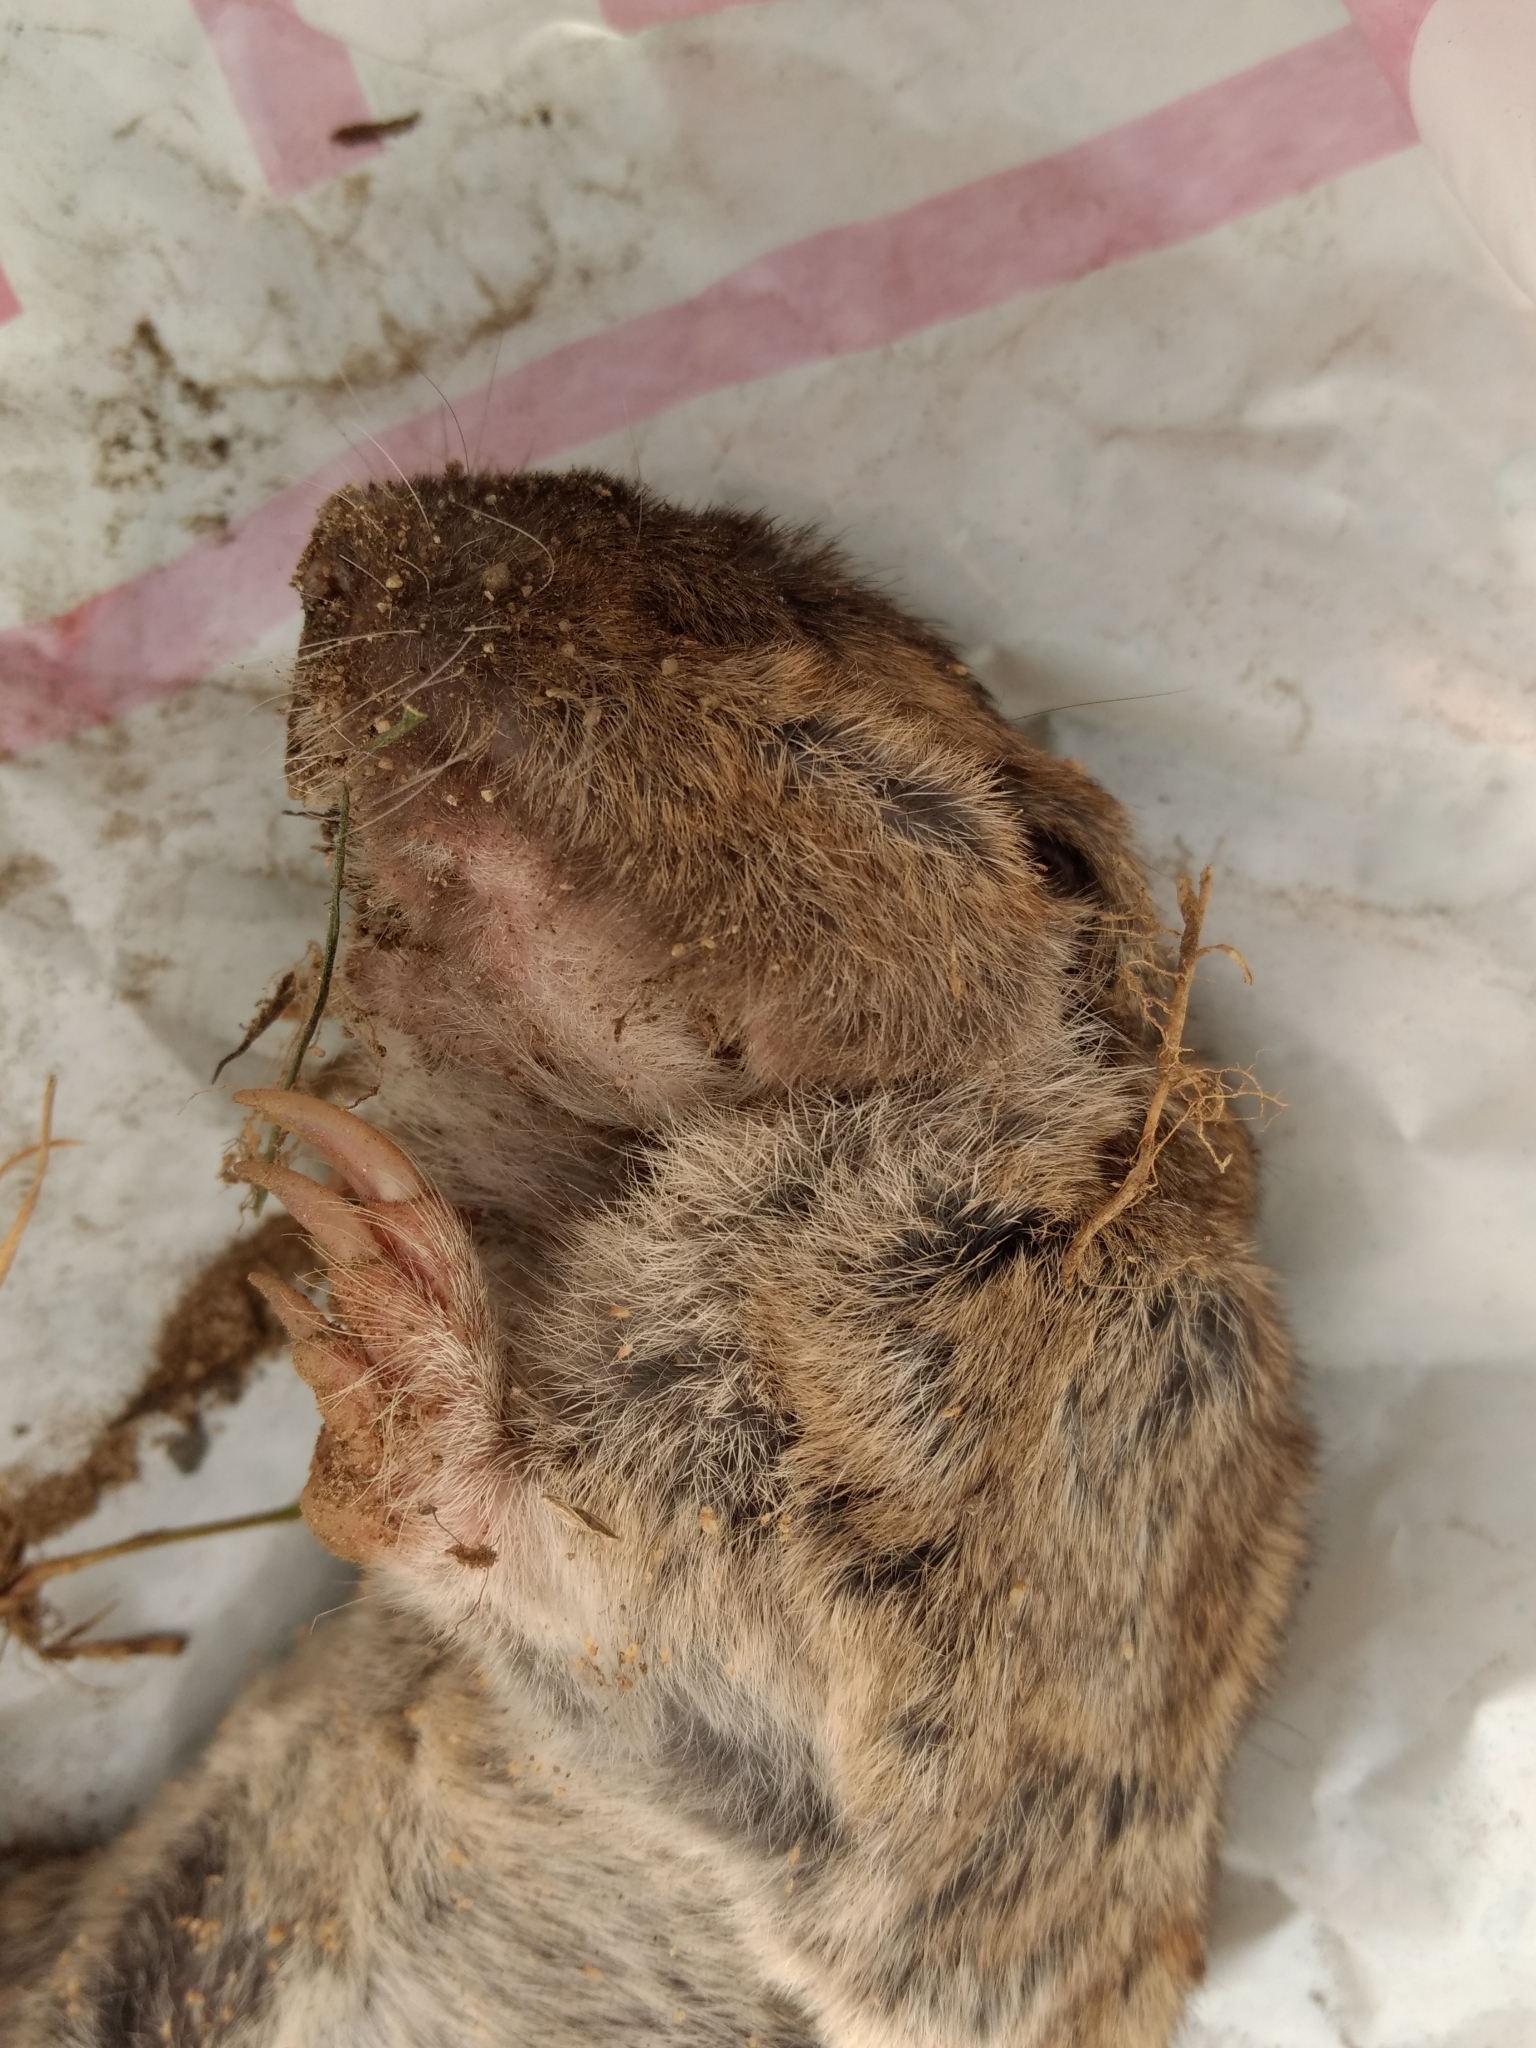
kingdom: Animalia
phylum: Chordata
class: Mammalia
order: Rodentia
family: Geomyidae
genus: Thomomys
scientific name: Thomomys bottae
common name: Botta's pocket gopher
